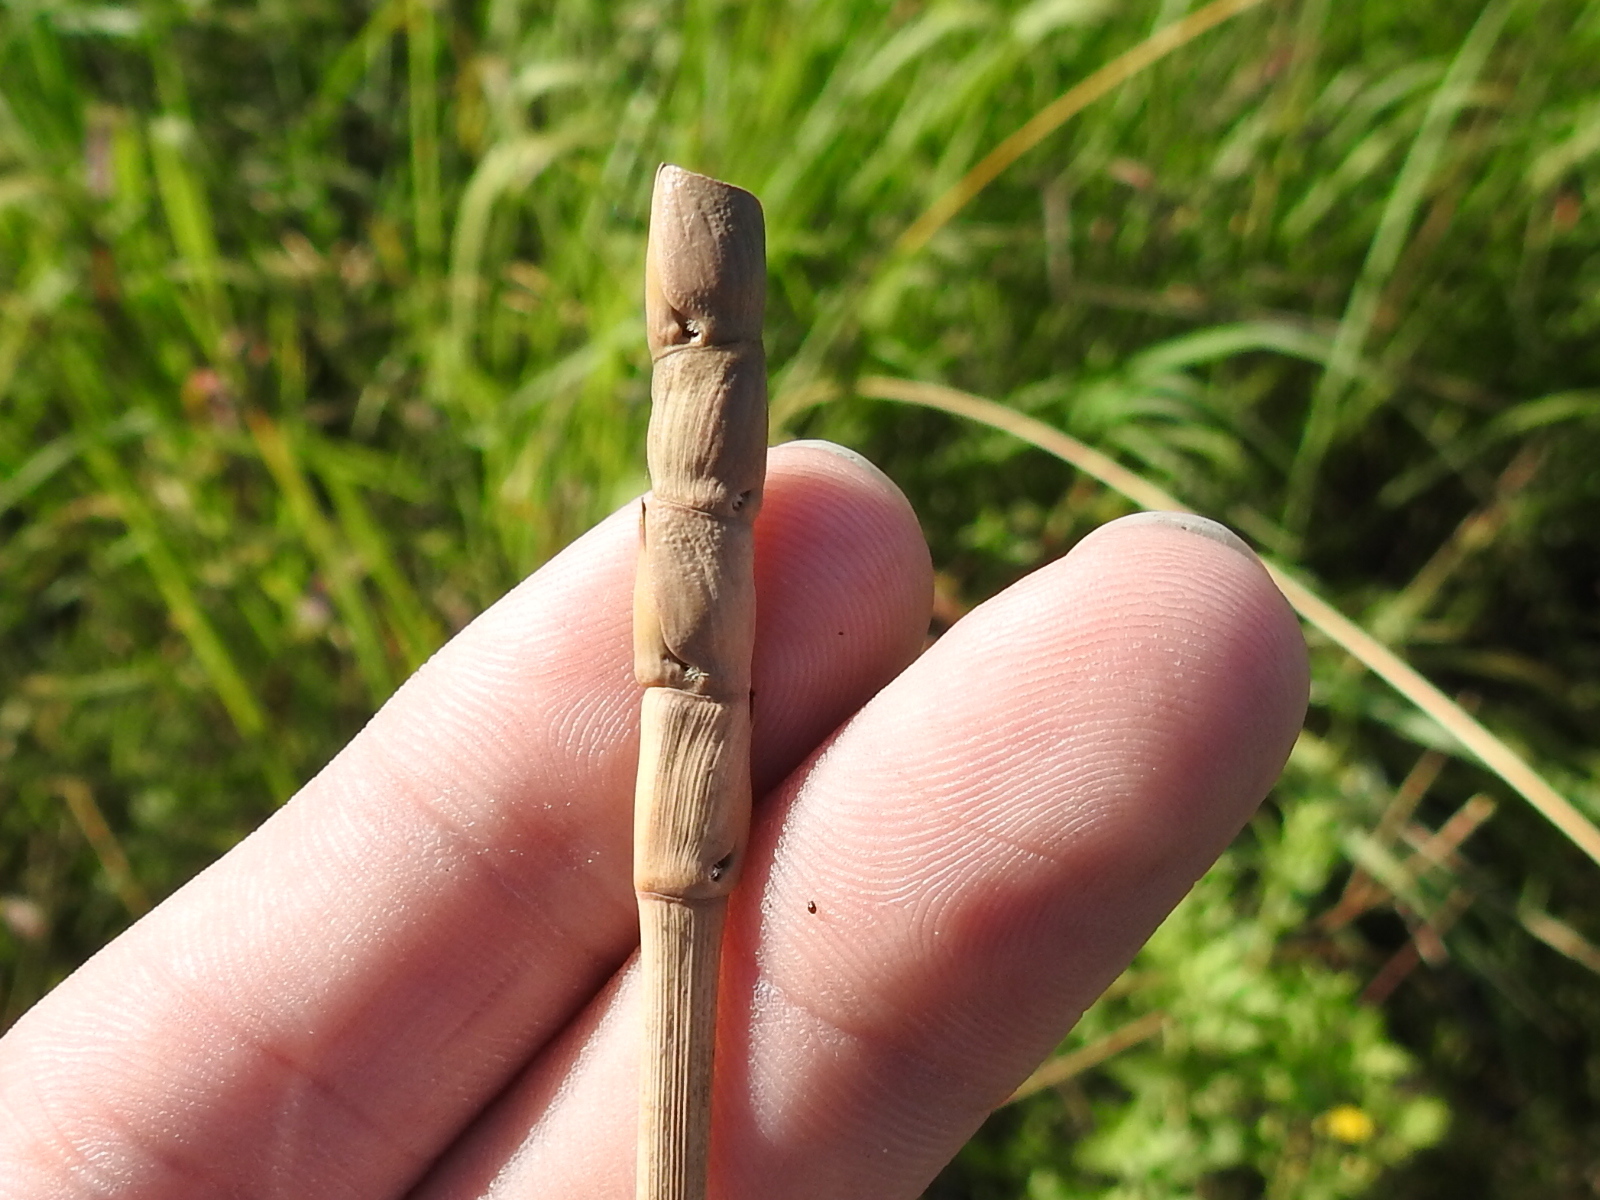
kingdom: Plantae
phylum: Tracheophyta
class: Liliopsida
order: Poales
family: Poaceae
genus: Tripsacum
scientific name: Tripsacum dactyloides
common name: Buffalo-grass
